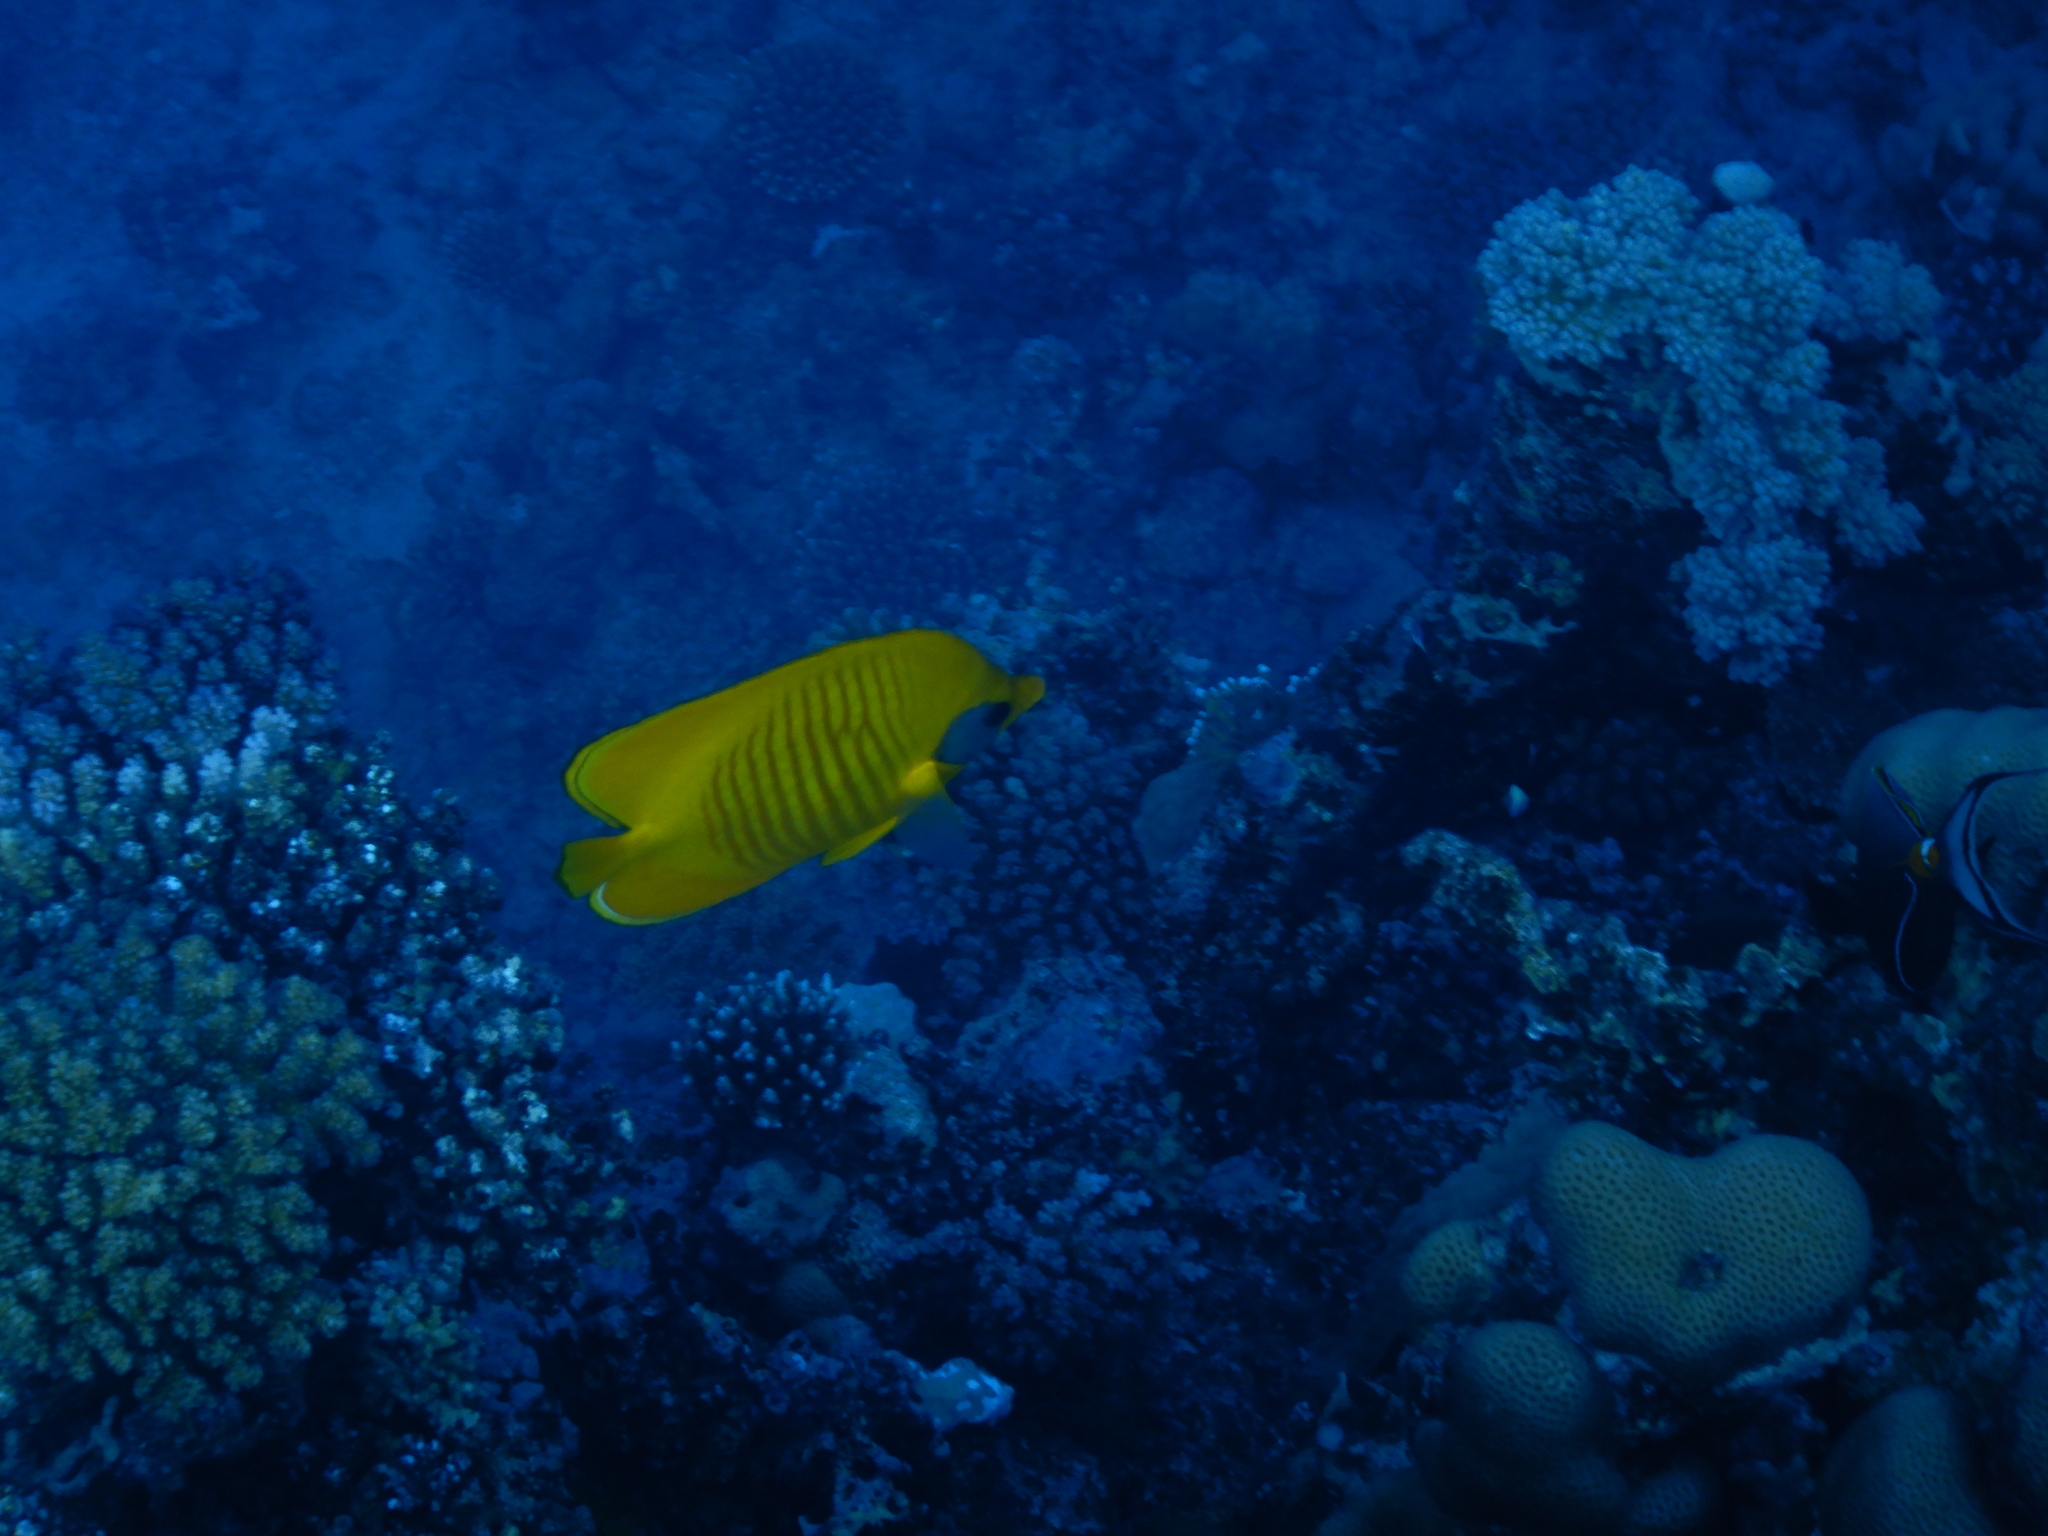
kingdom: Animalia
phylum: Chordata
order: Perciformes
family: Chaetodontidae
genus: Chaetodon
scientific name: Chaetodon semilarvatus
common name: Golden butterflyfish
